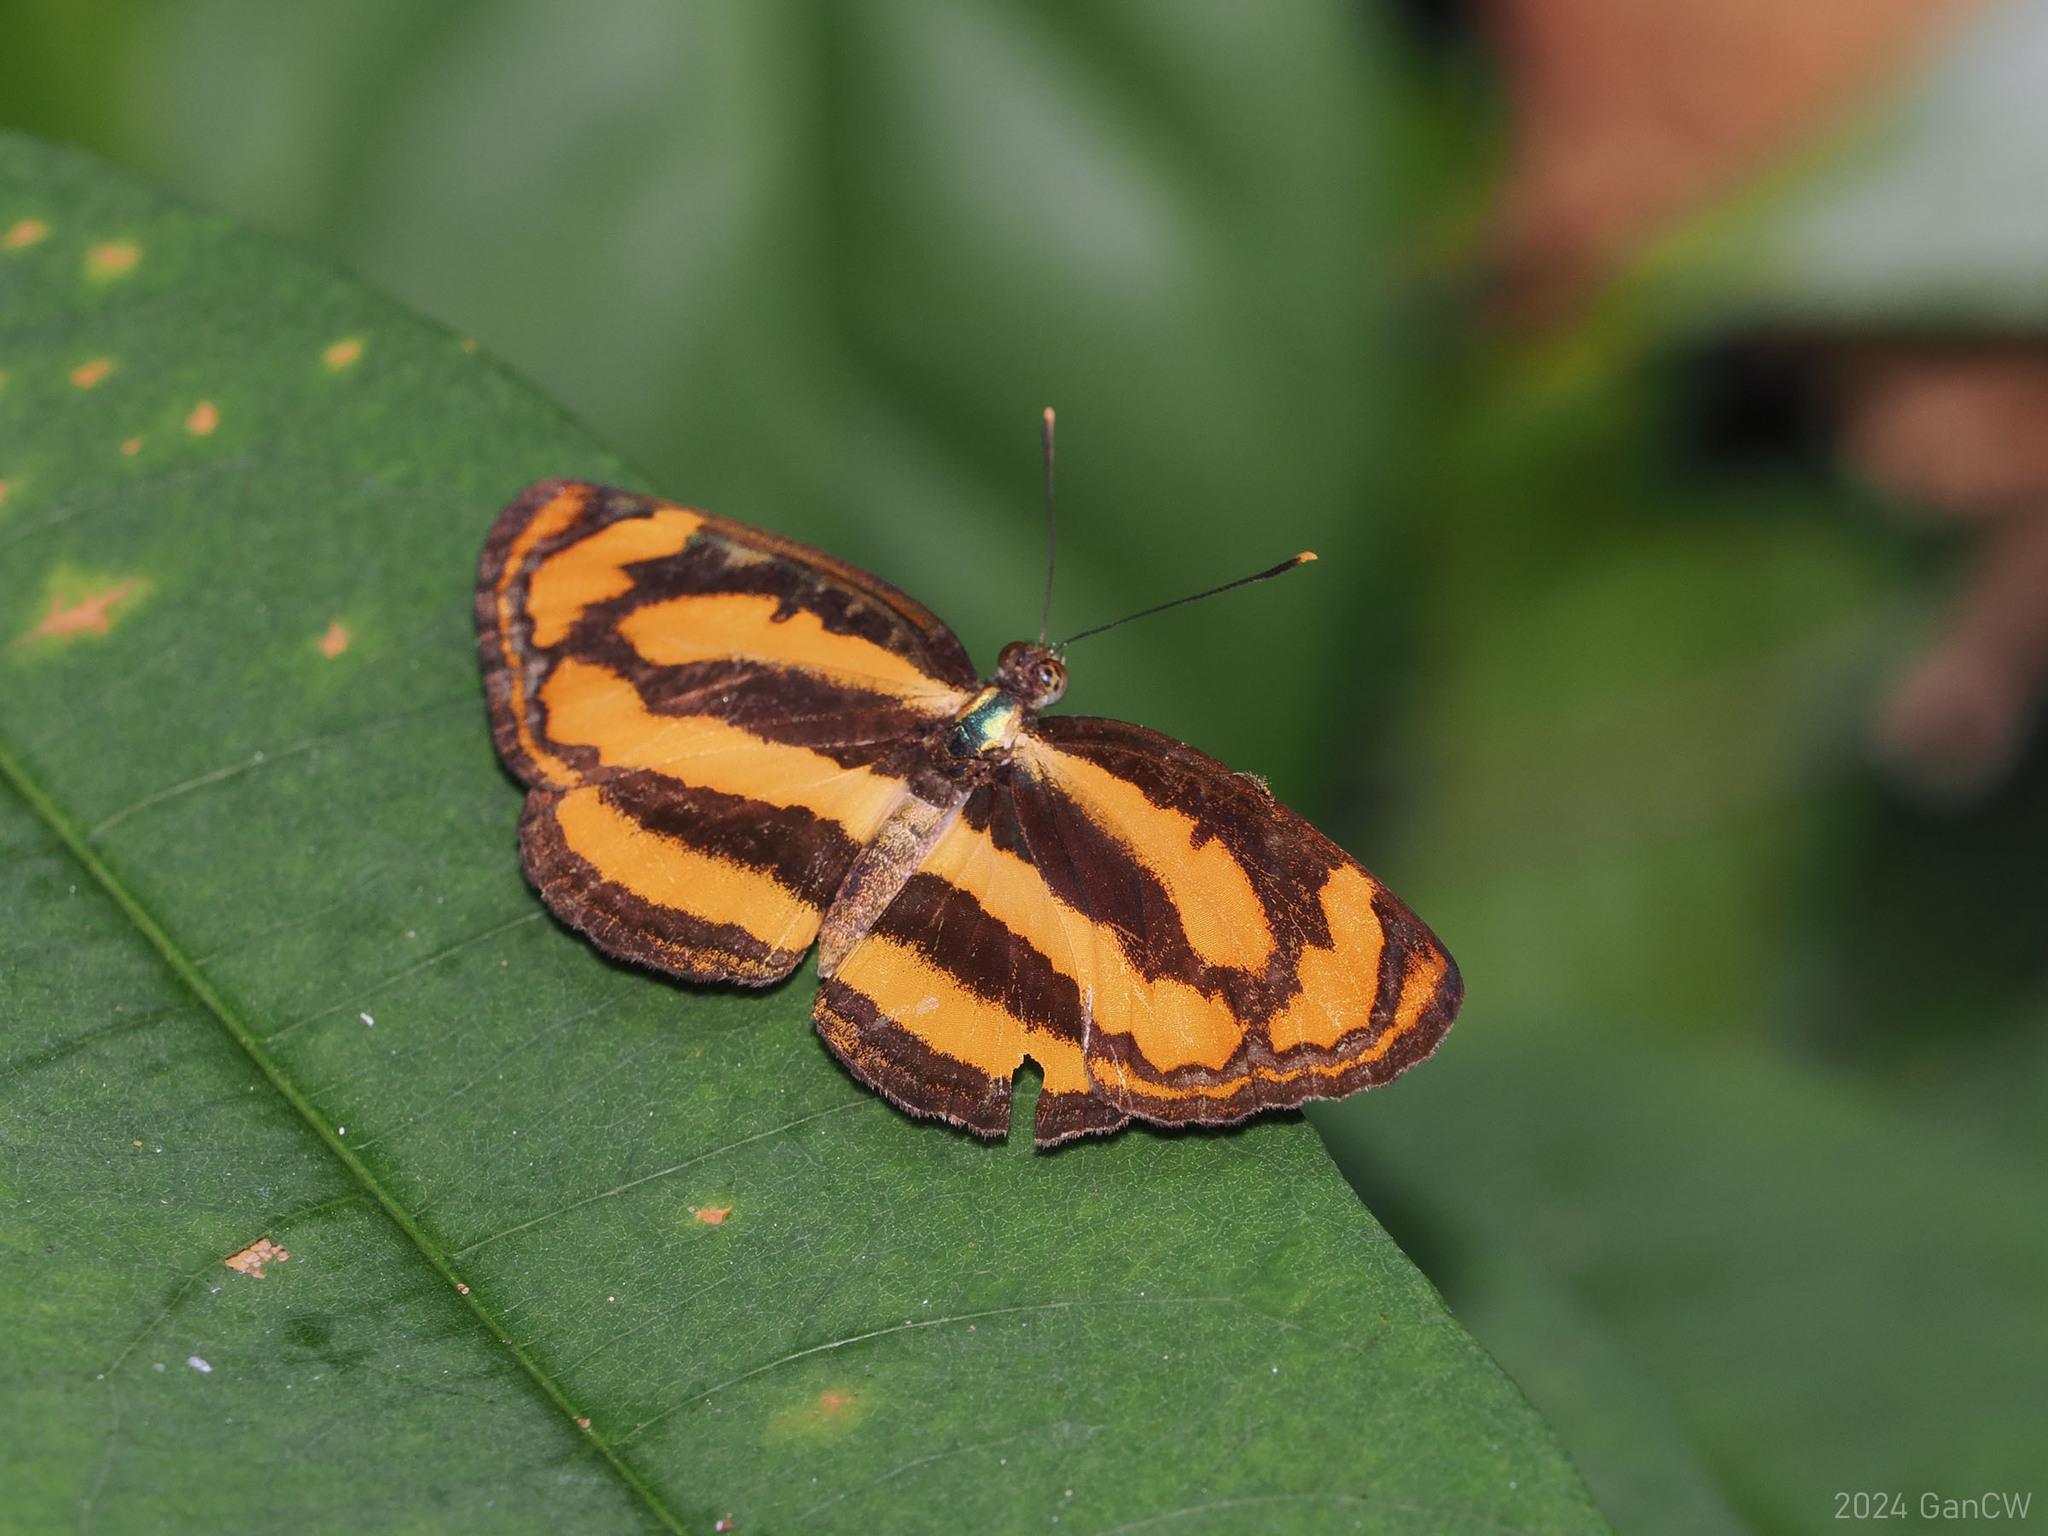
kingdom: Animalia
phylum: Arthropoda
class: Insecta
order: Lepidoptera
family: Nymphalidae
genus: Pantoporia
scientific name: Pantoporia hordonia
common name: Common lascar
